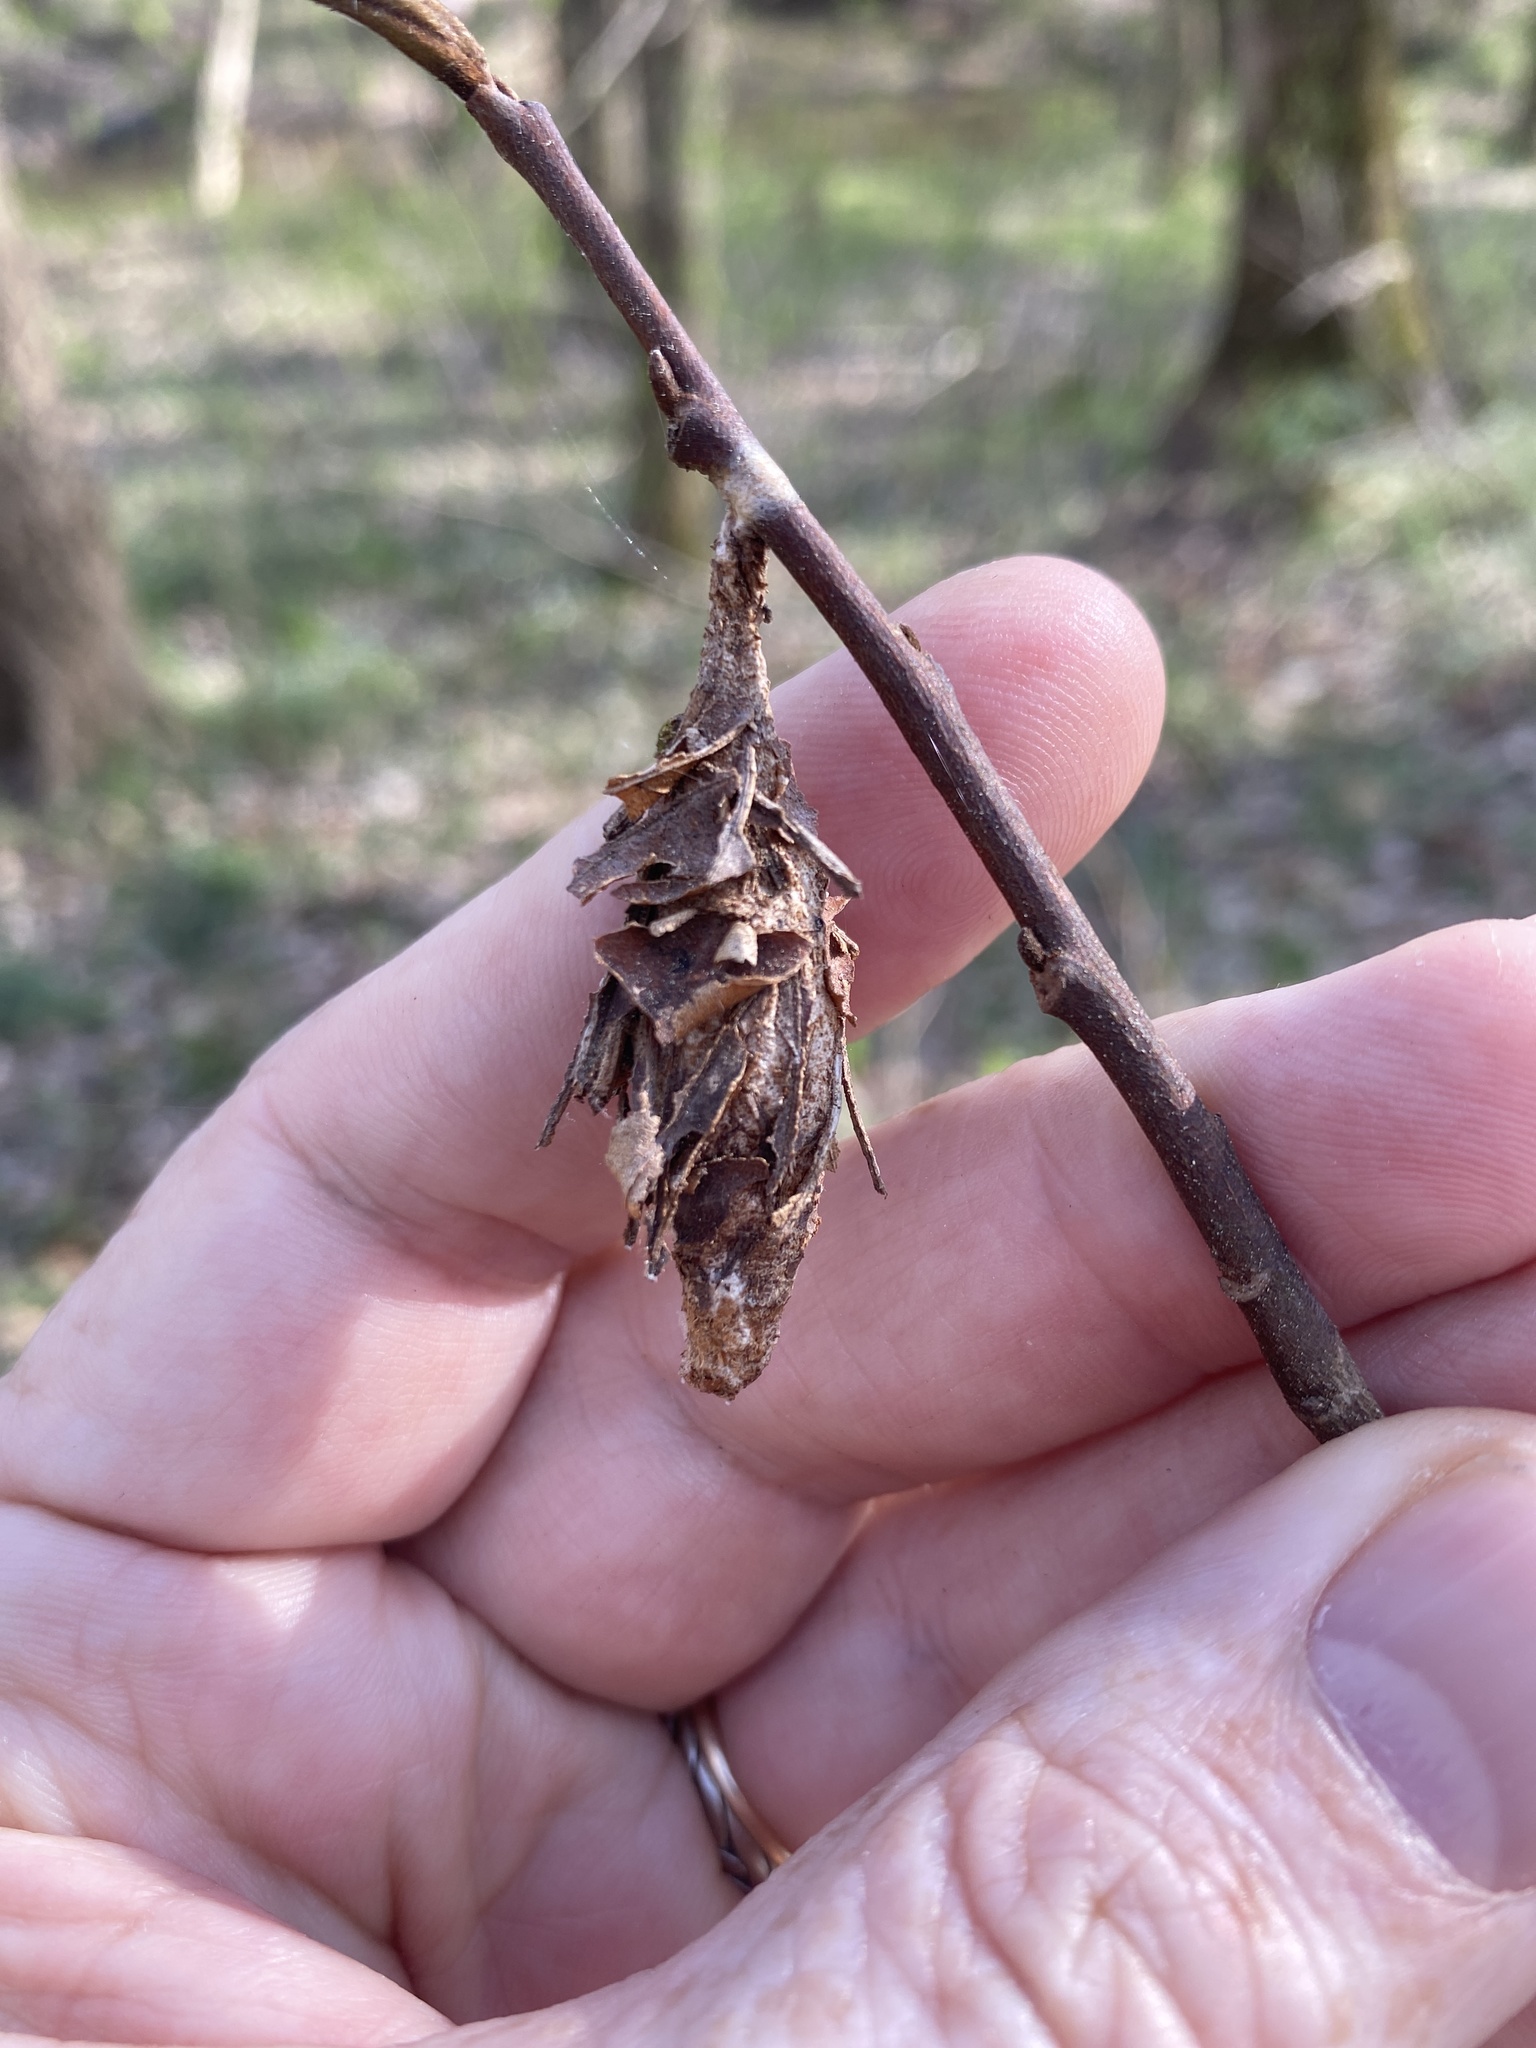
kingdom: Animalia
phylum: Arthropoda
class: Insecta
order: Lepidoptera
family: Psychidae
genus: Thyridopteryx
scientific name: Thyridopteryx ephemeraeformis
